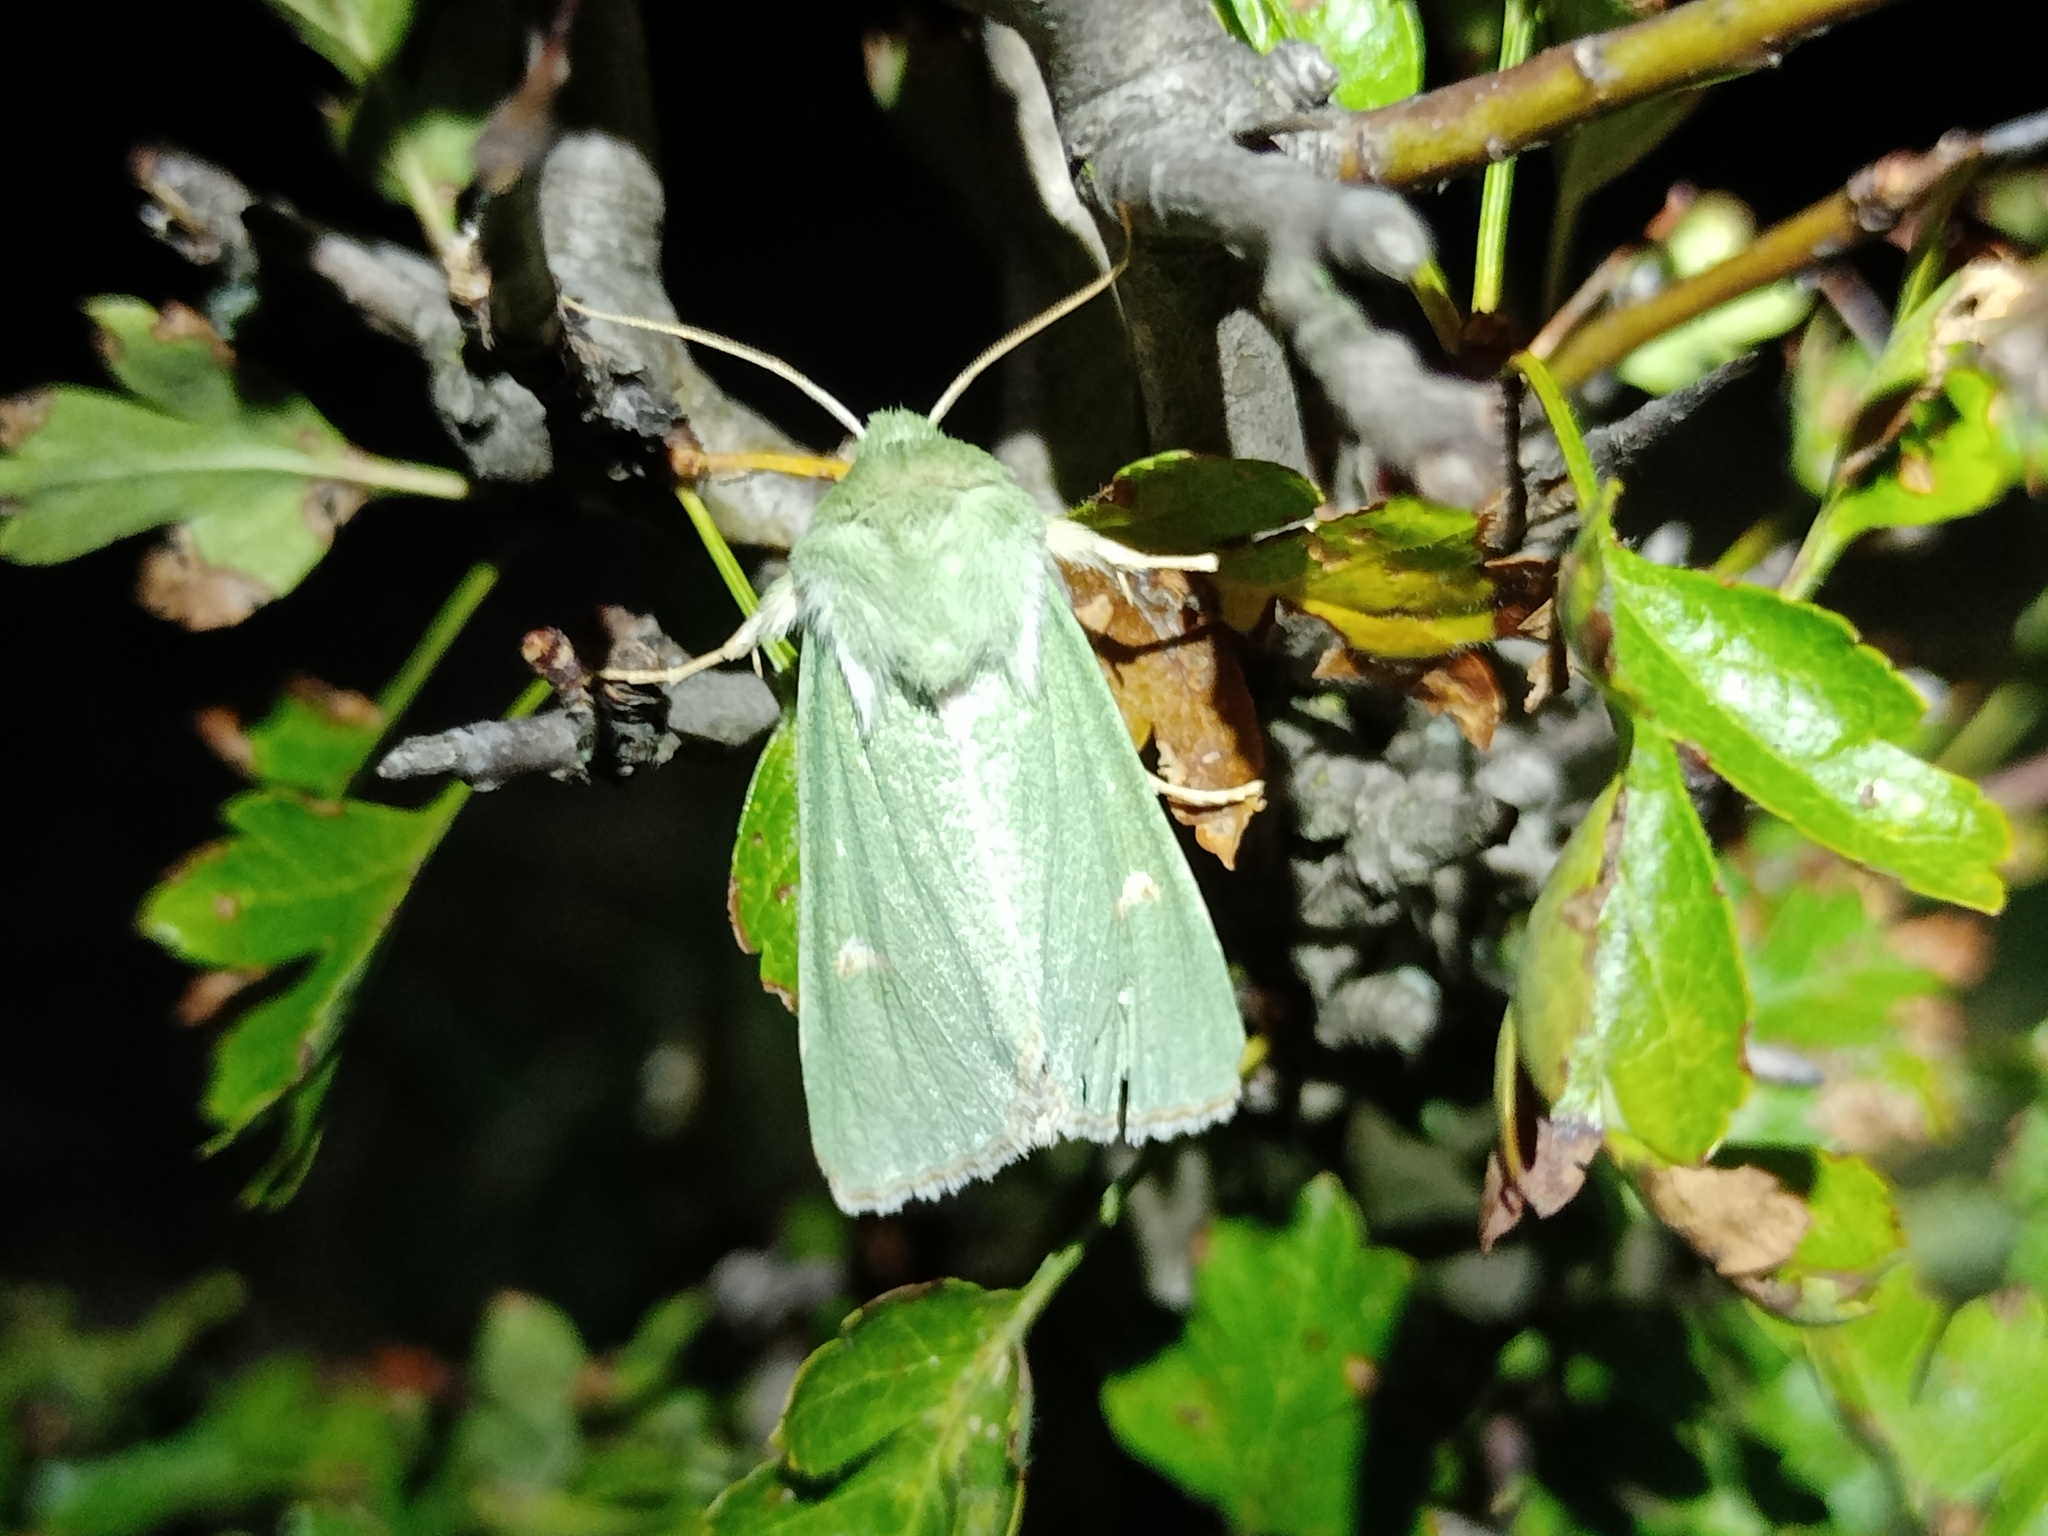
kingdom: Animalia
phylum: Arthropoda
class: Insecta
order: Lepidoptera
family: Noctuidae
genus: Calamia
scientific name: Calamia tridens
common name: Burren green
